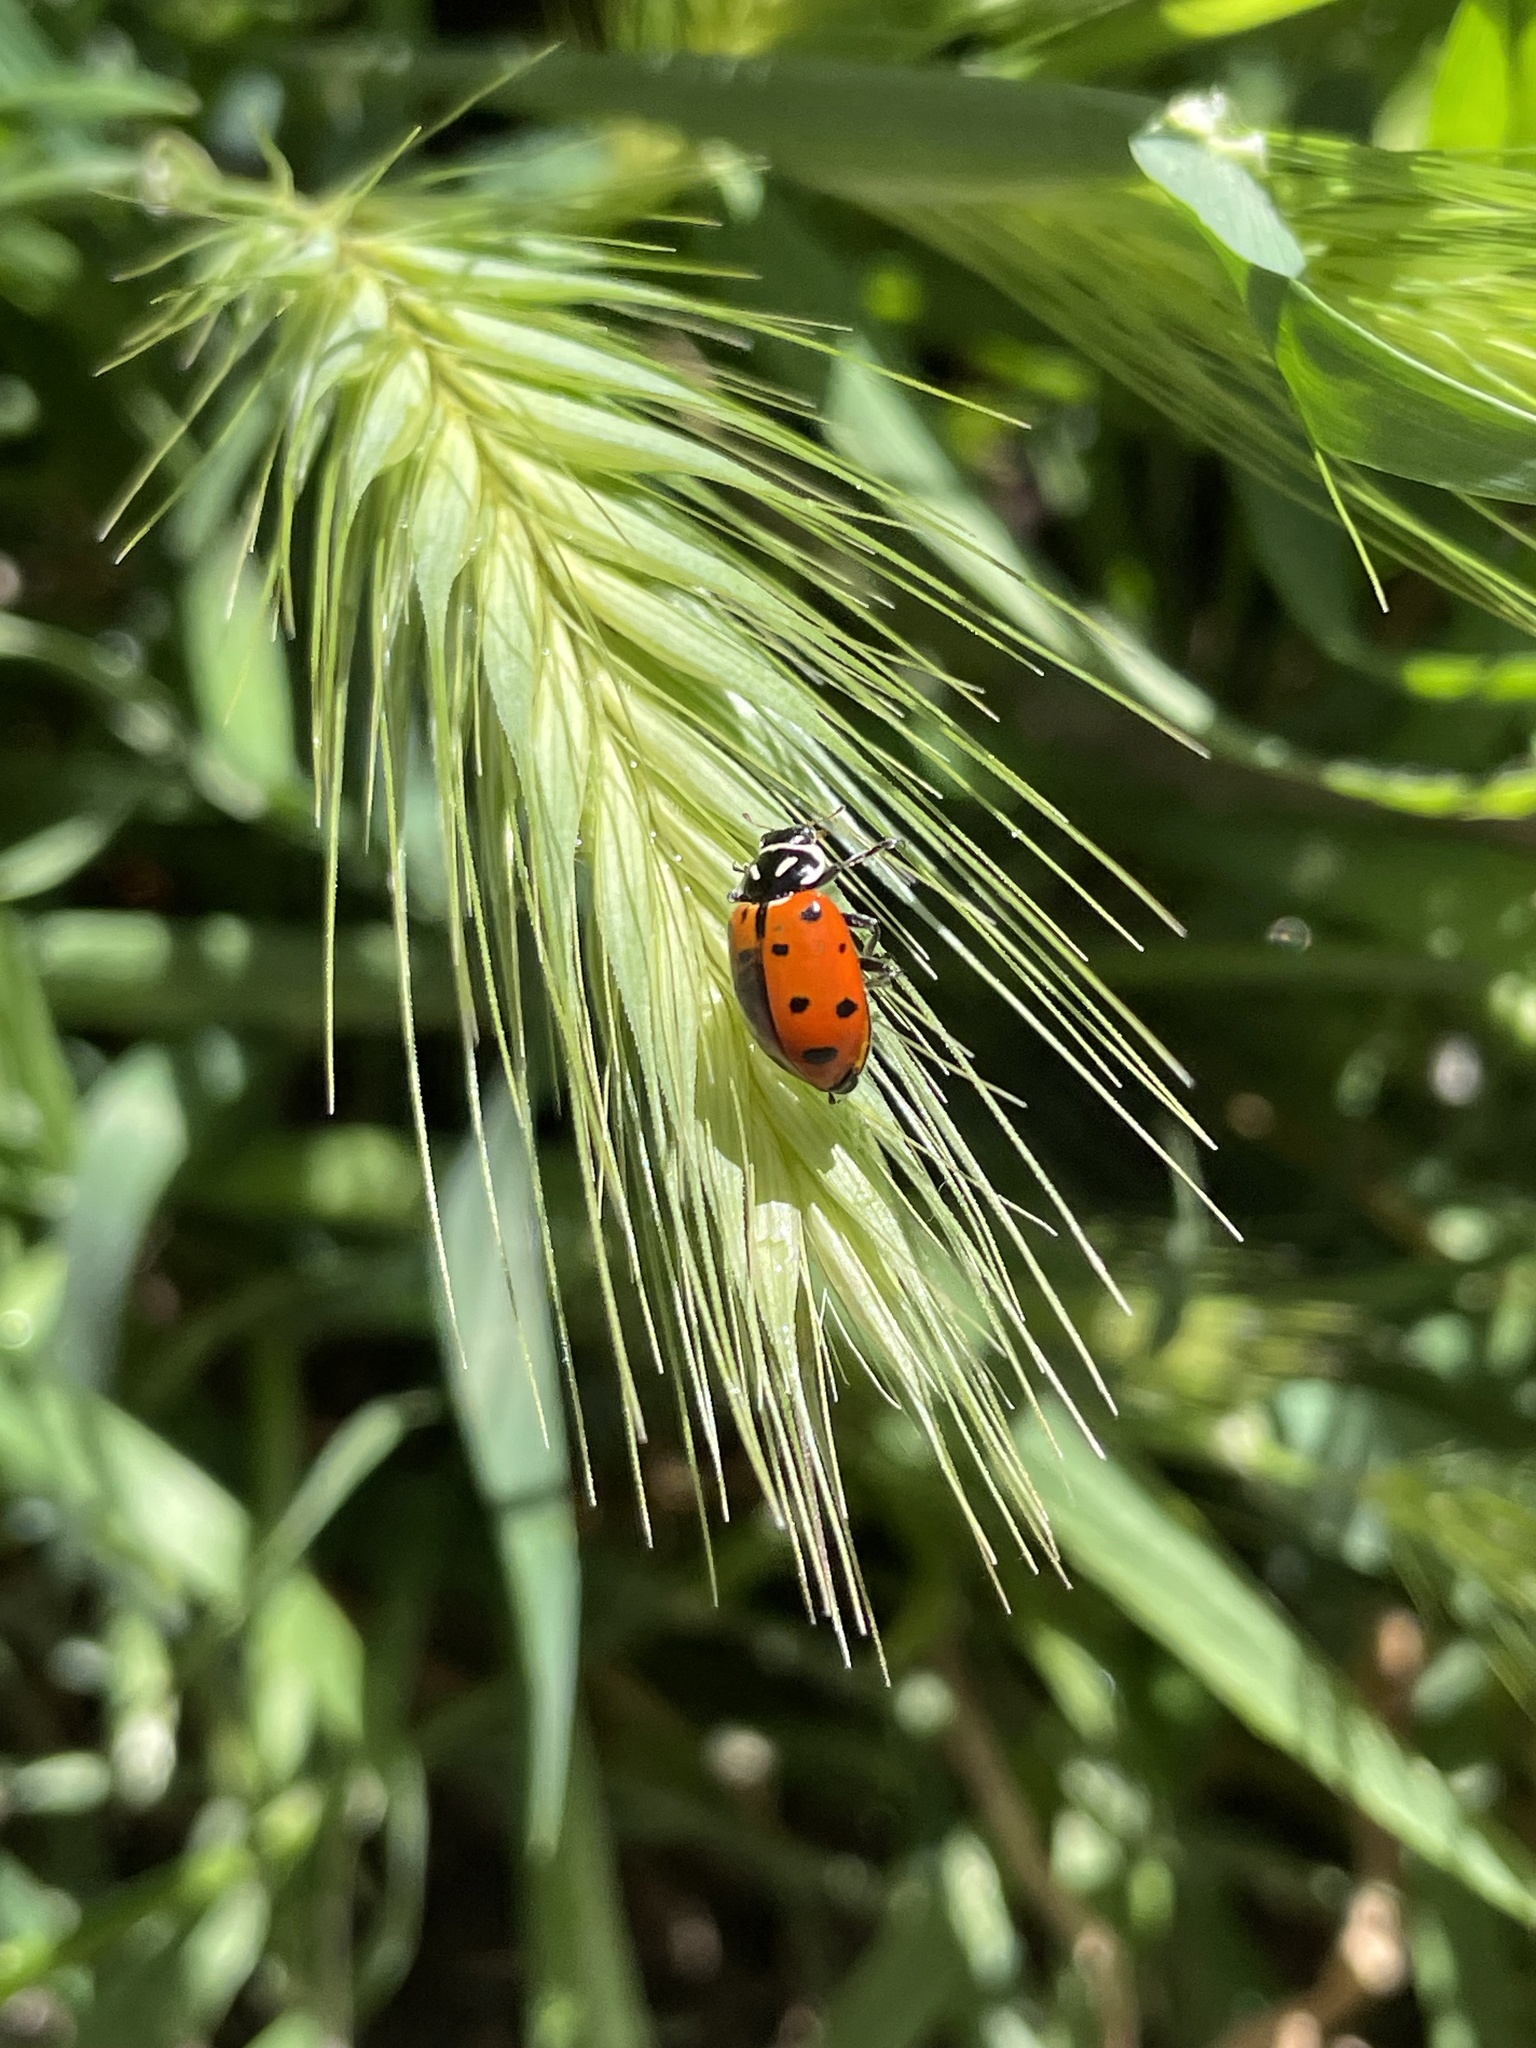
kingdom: Animalia
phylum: Arthropoda
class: Insecta
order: Coleoptera
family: Coccinellidae
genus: Hippodamia
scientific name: Hippodamia convergens
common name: Convergent lady beetle
